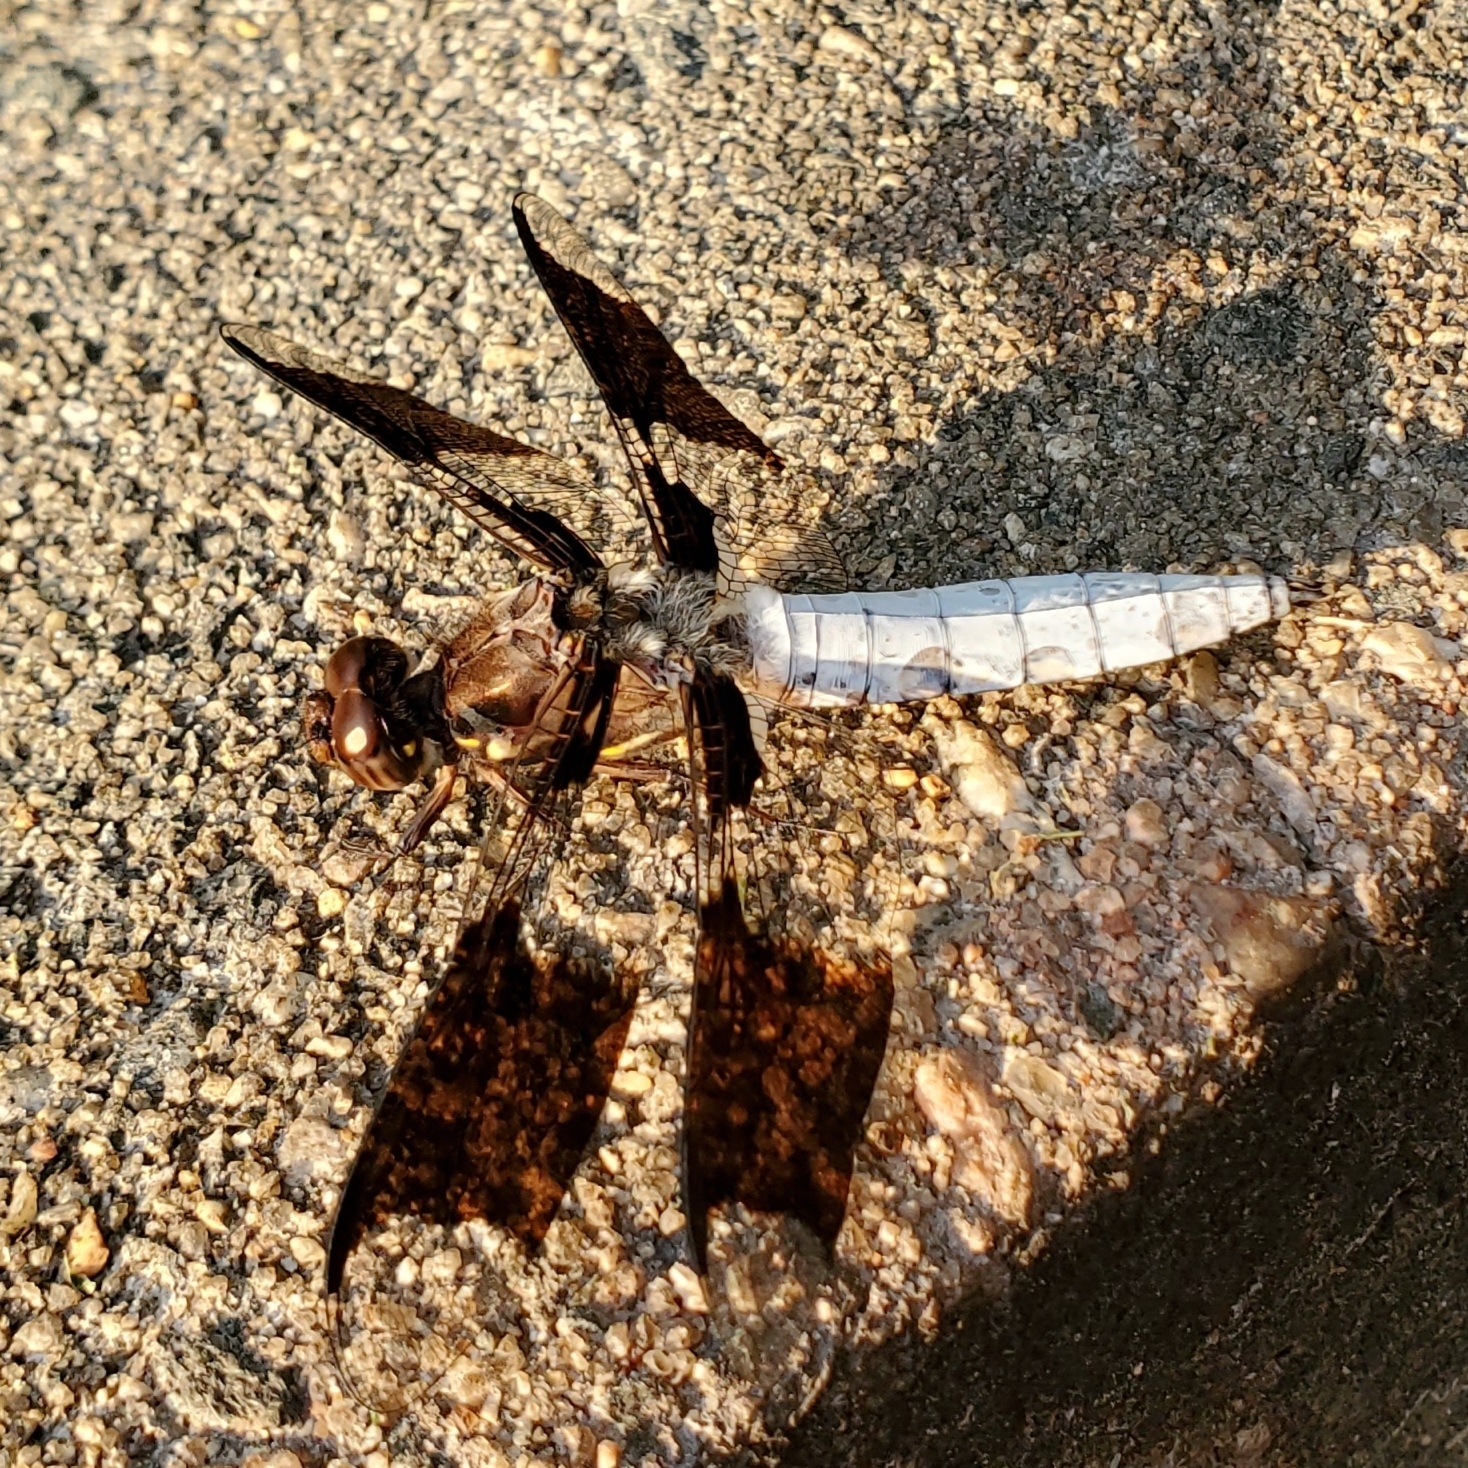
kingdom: Animalia
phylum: Arthropoda
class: Insecta
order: Odonata
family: Libellulidae
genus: Plathemis
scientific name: Plathemis lydia
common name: Common whitetail
